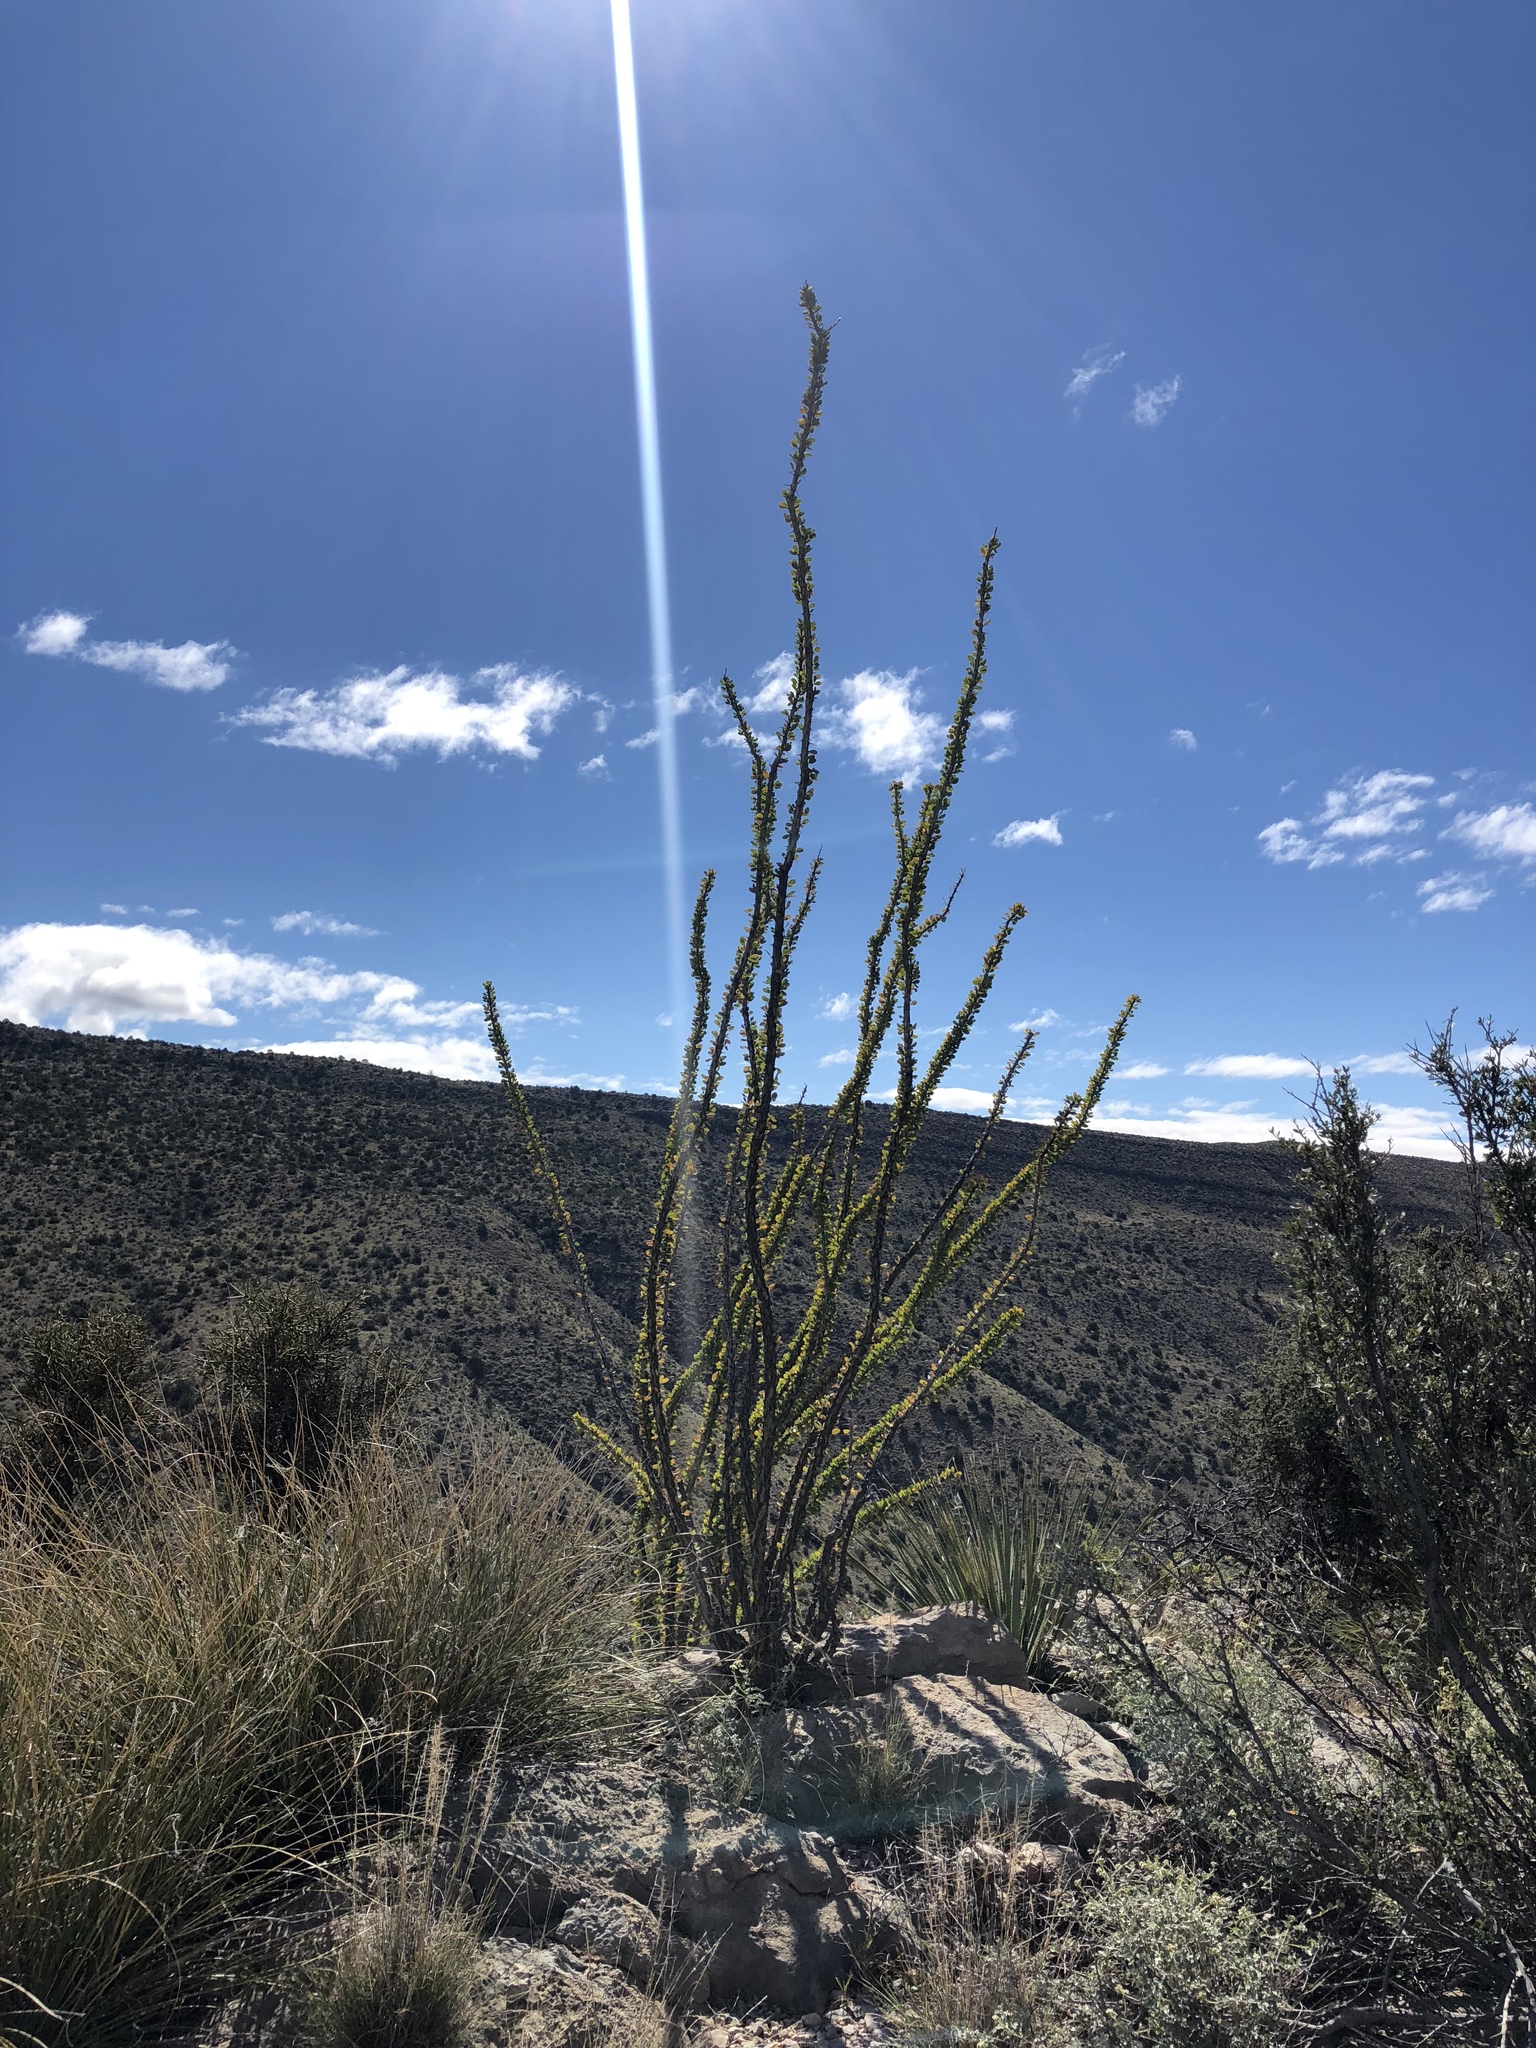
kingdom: Plantae
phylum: Tracheophyta
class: Magnoliopsida
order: Ericales
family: Fouquieriaceae
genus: Fouquieria
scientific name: Fouquieria splendens
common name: Vine-cactus
